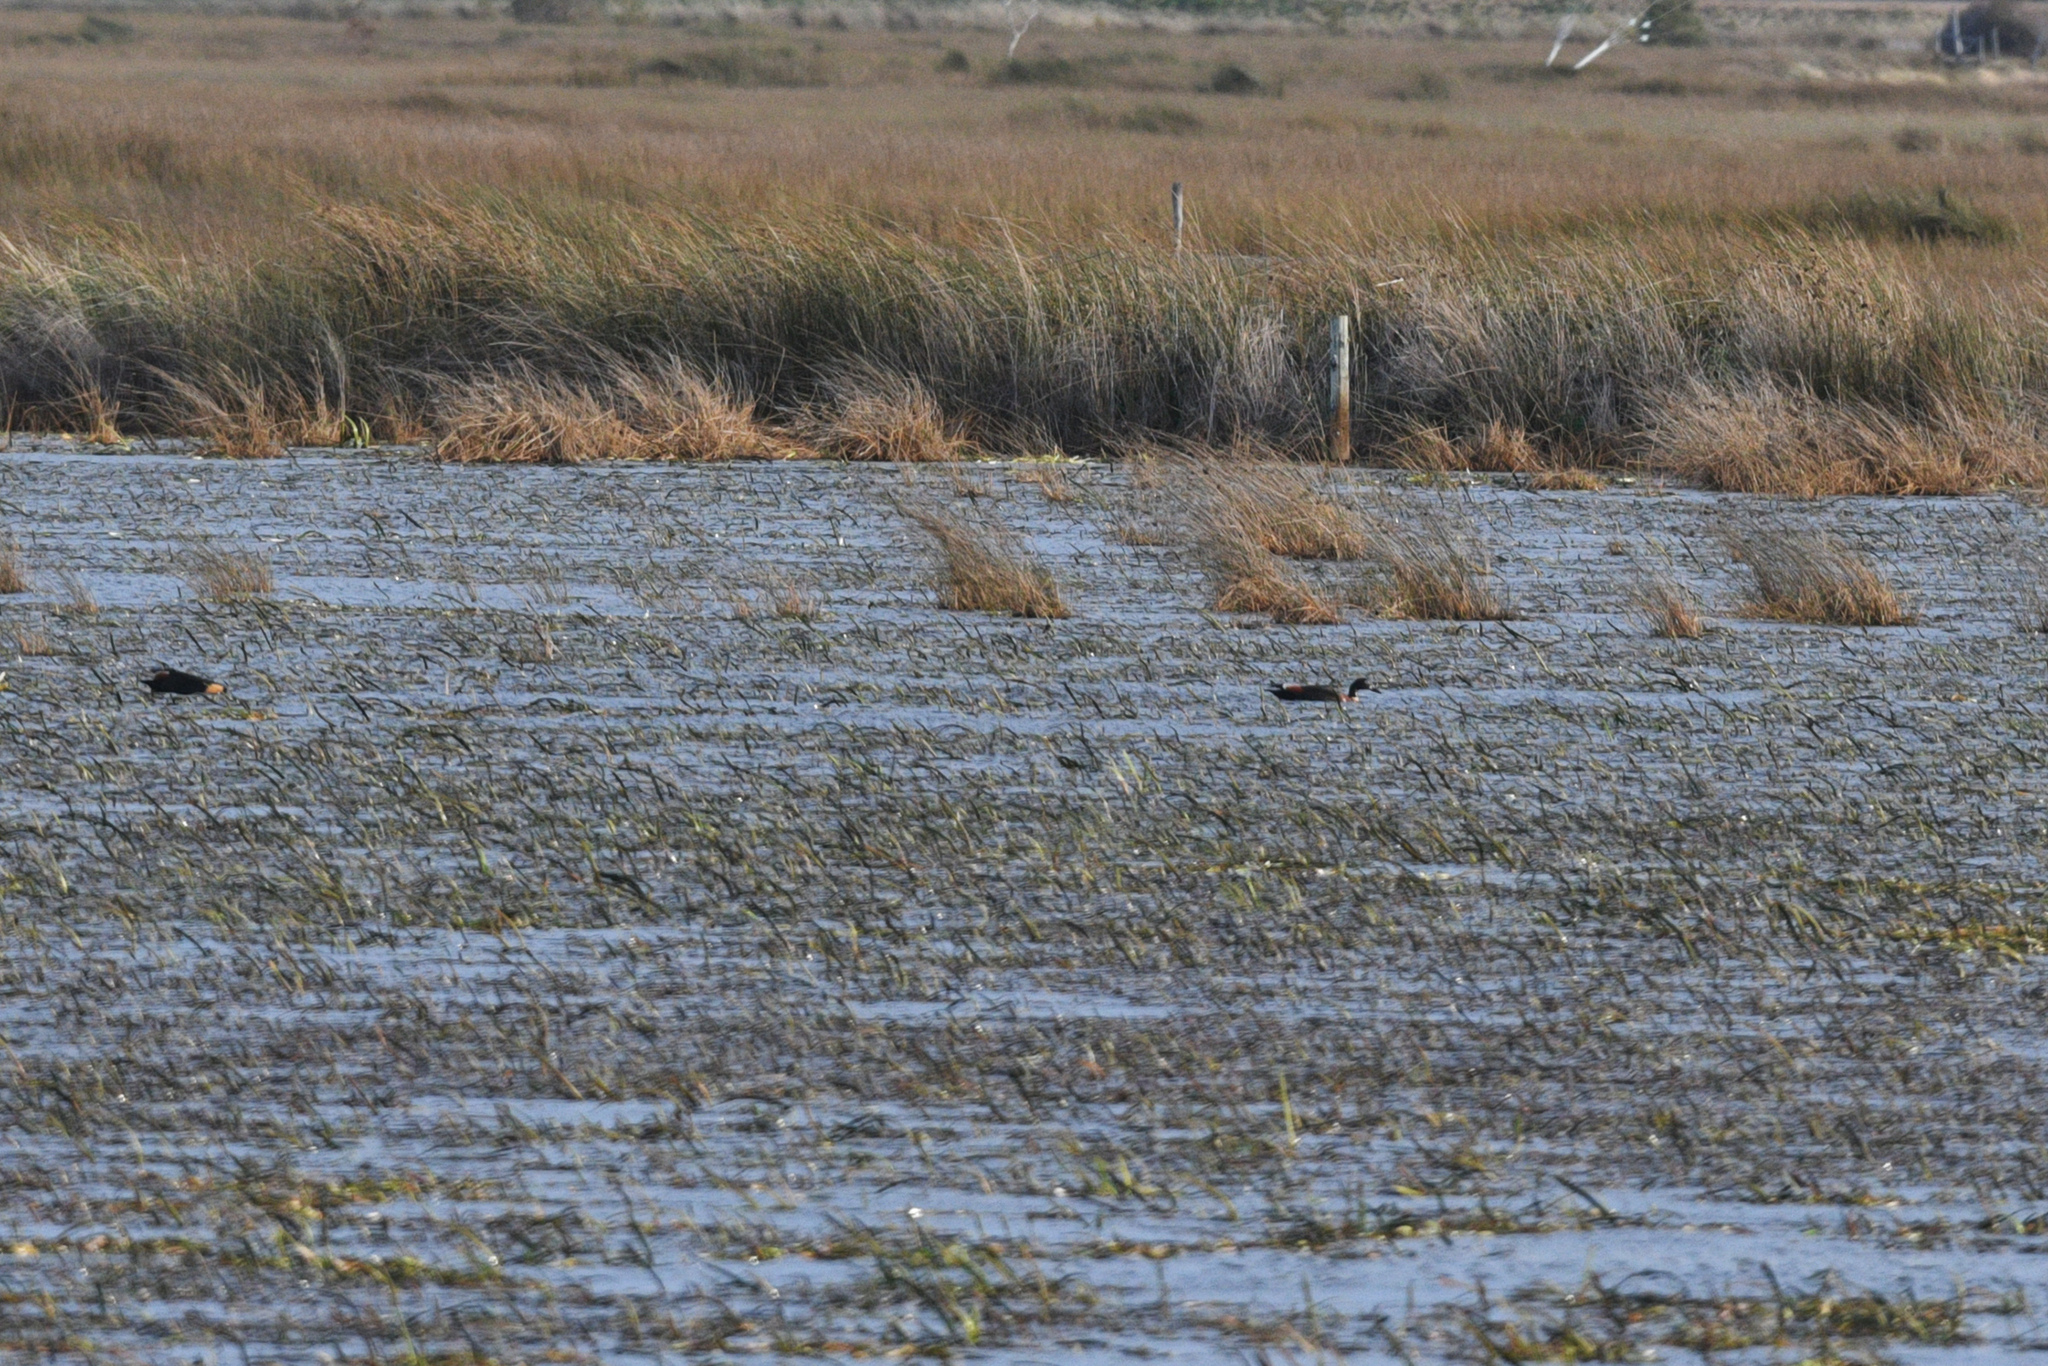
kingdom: Animalia
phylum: Chordata
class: Aves
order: Anseriformes
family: Anatidae
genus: Tadorna
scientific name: Tadorna tadornoides
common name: Australian shelduck
